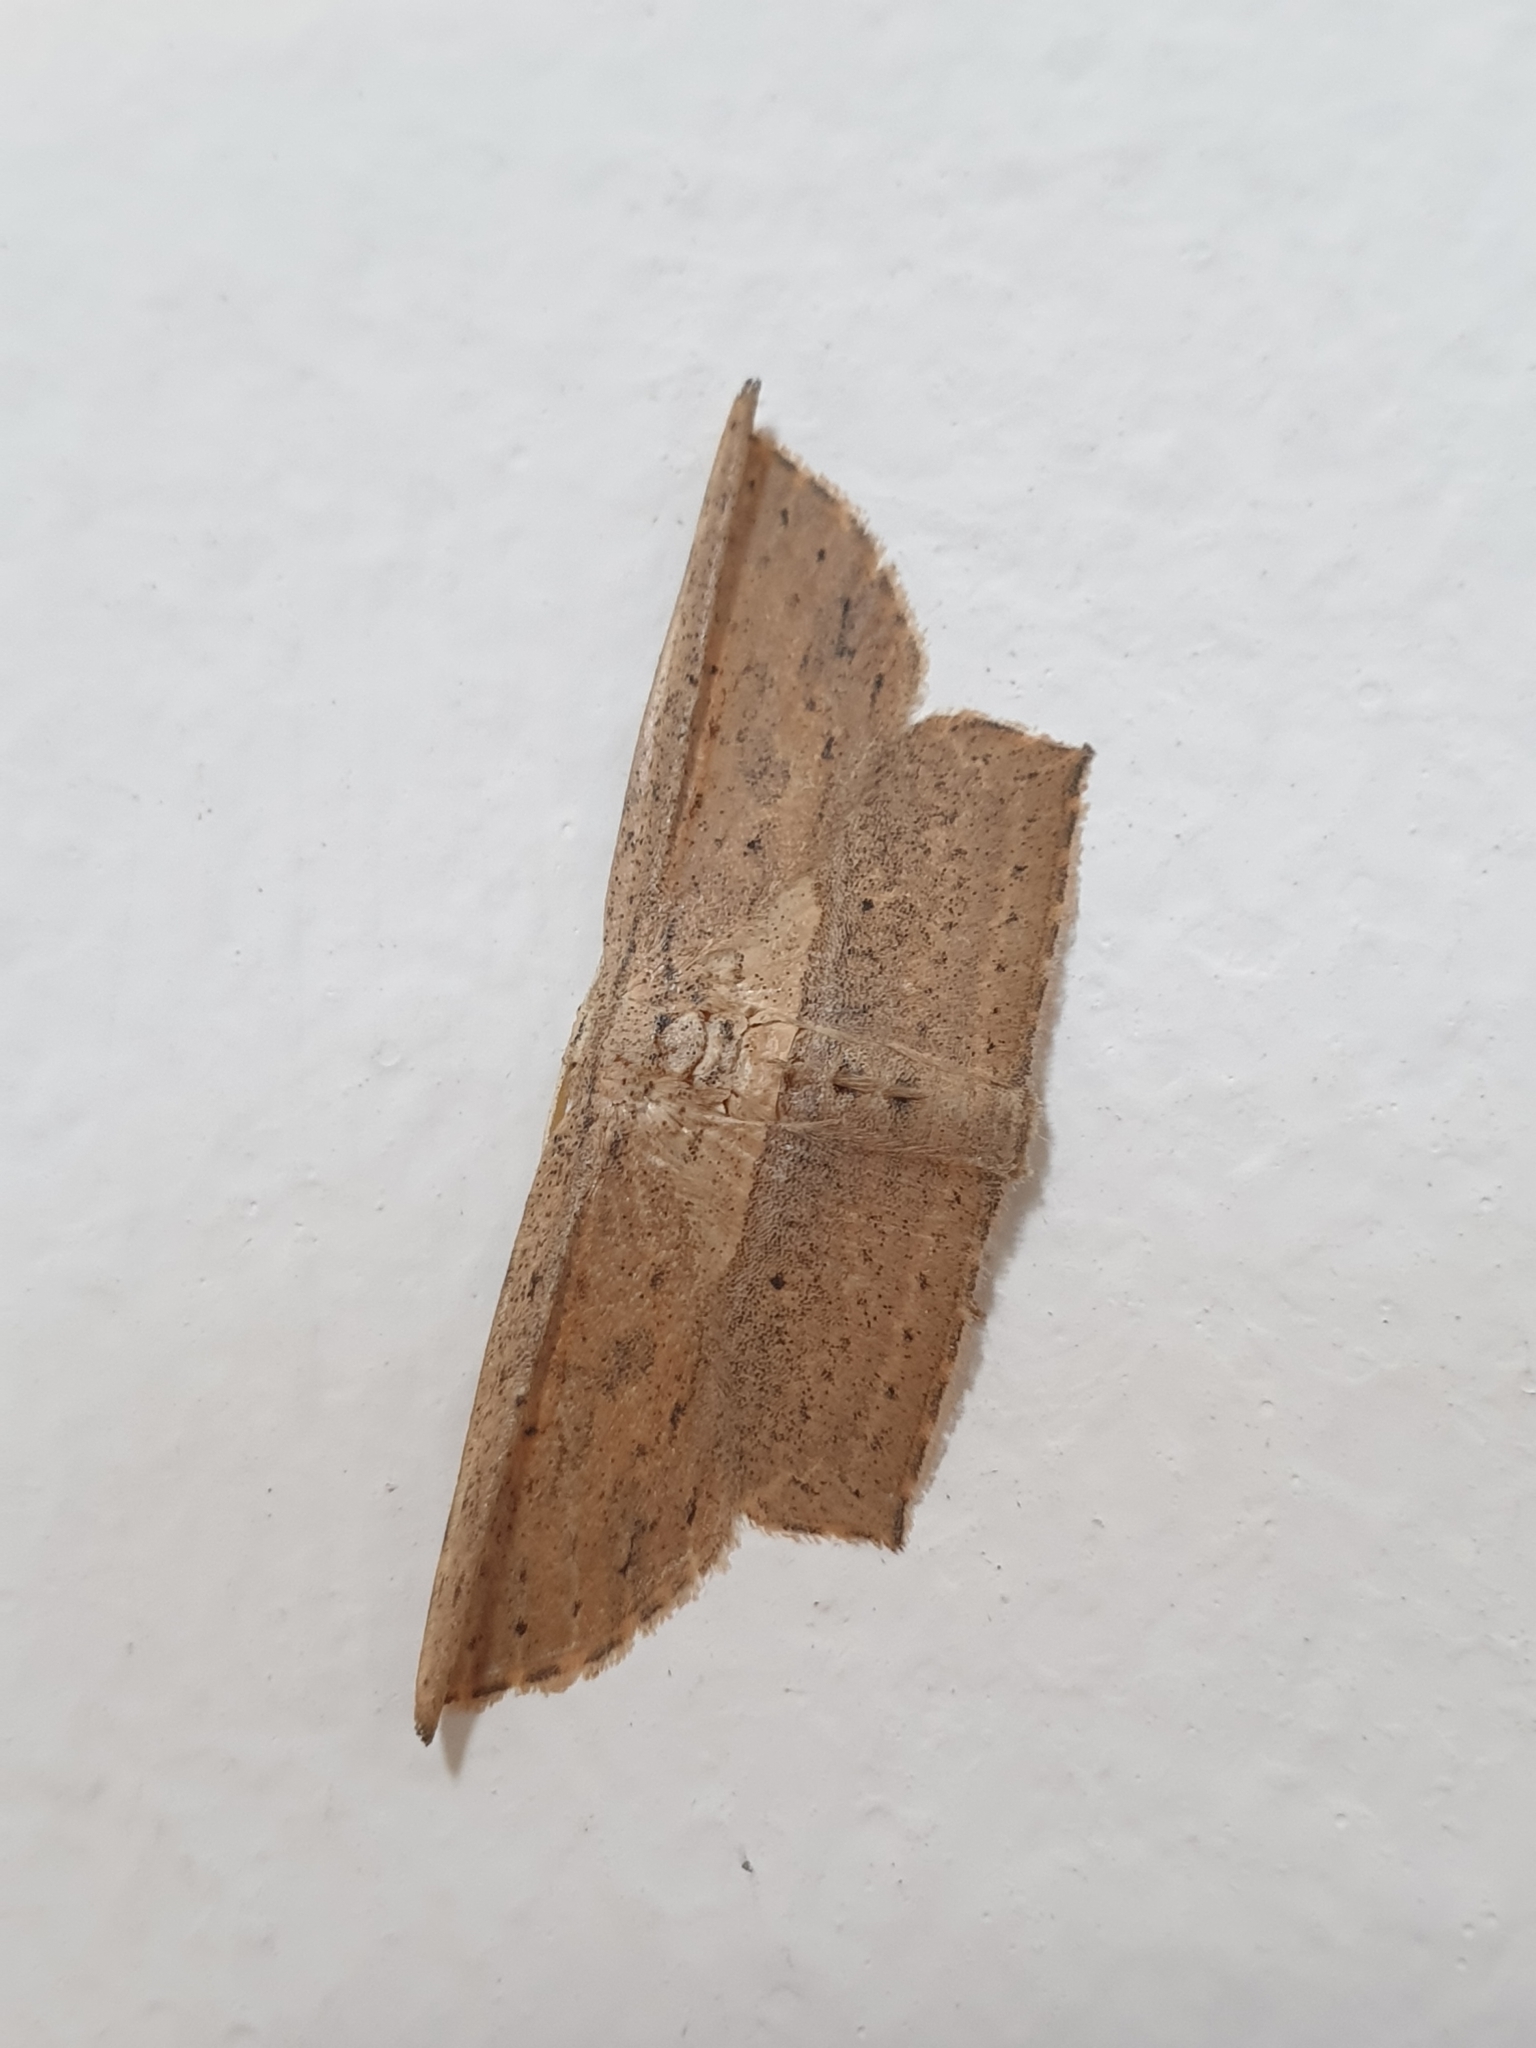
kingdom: Animalia
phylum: Arthropoda
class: Insecta
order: Lepidoptera
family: Drepanidae
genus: Phalacra
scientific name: Phalacra vidhisara
